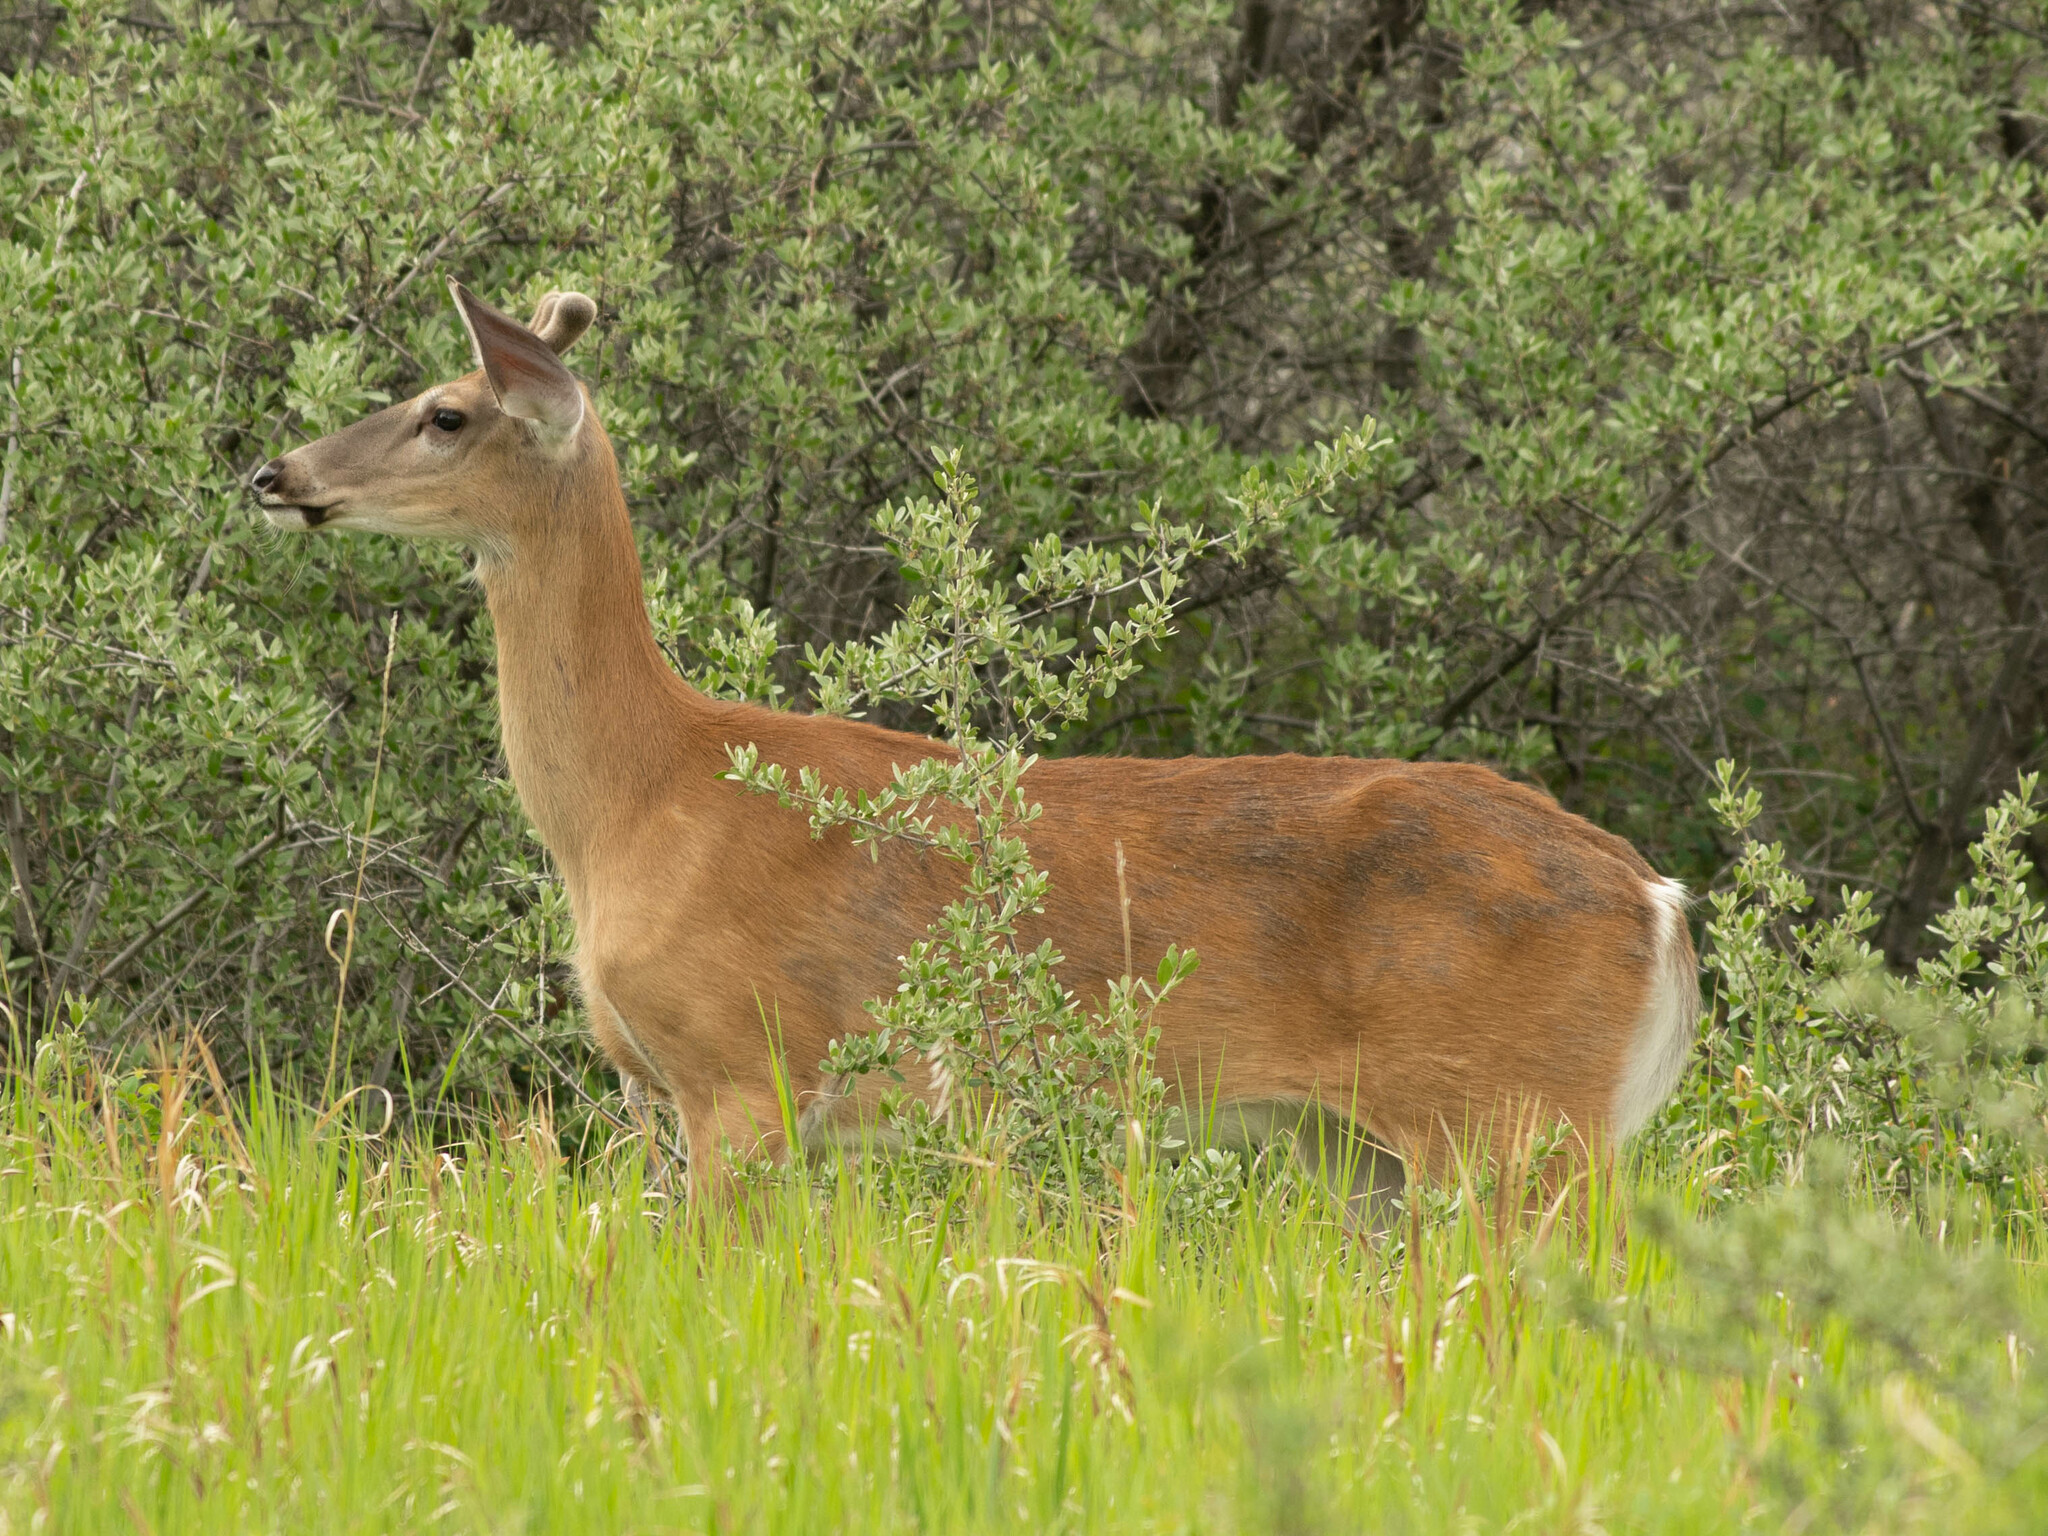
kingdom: Animalia
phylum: Chordata
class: Mammalia
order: Artiodactyla
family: Cervidae
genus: Odocoileus
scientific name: Odocoileus virginianus
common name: White-tailed deer
